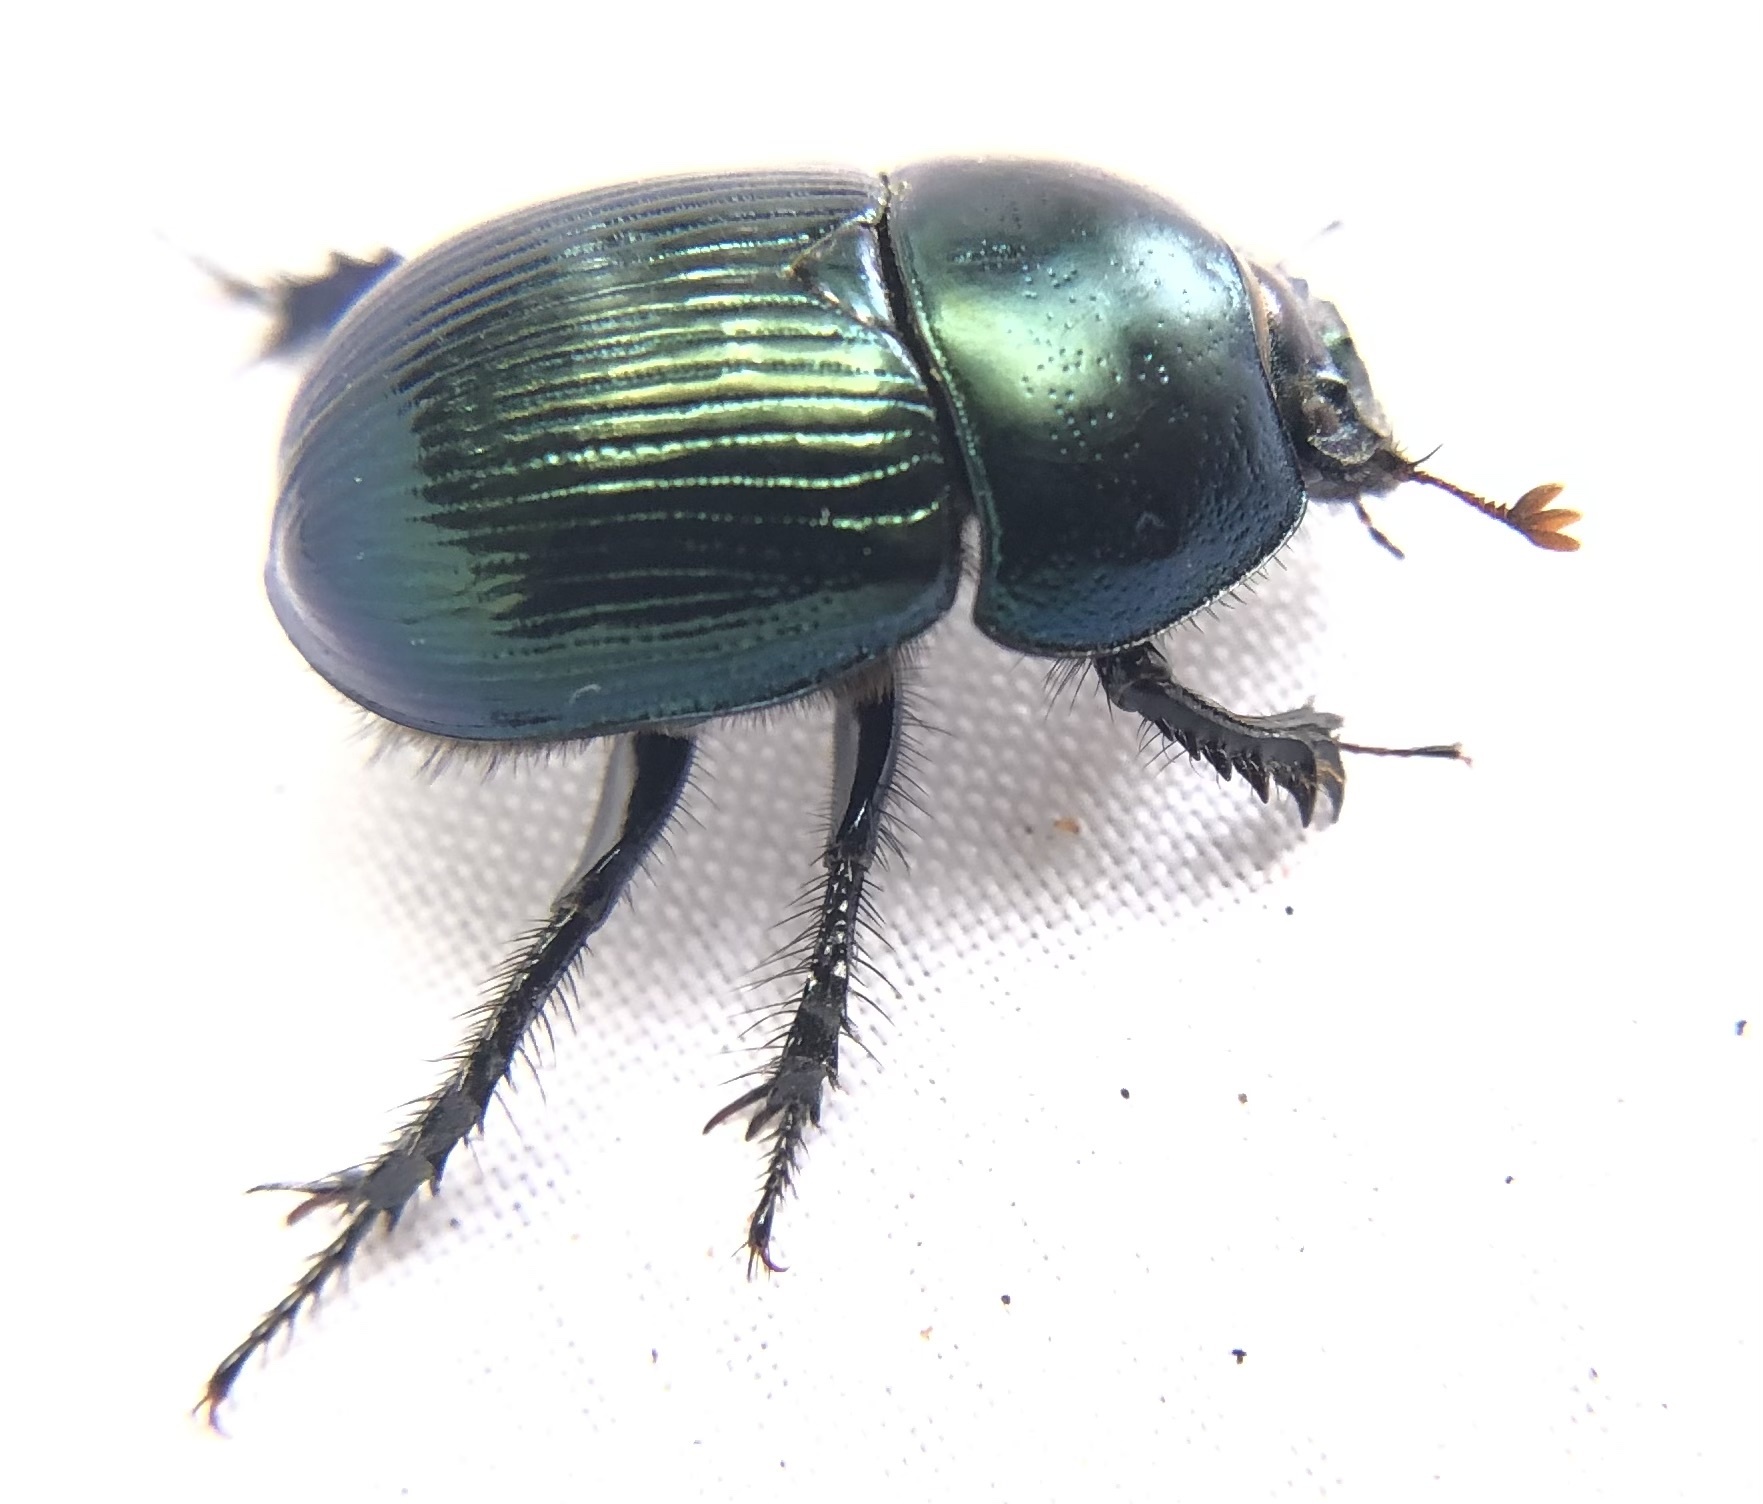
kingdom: Animalia
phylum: Arthropoda
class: Insecta
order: Coleoptera
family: Geotrupidae
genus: Geotrupes
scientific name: Geotrupes splendidus
